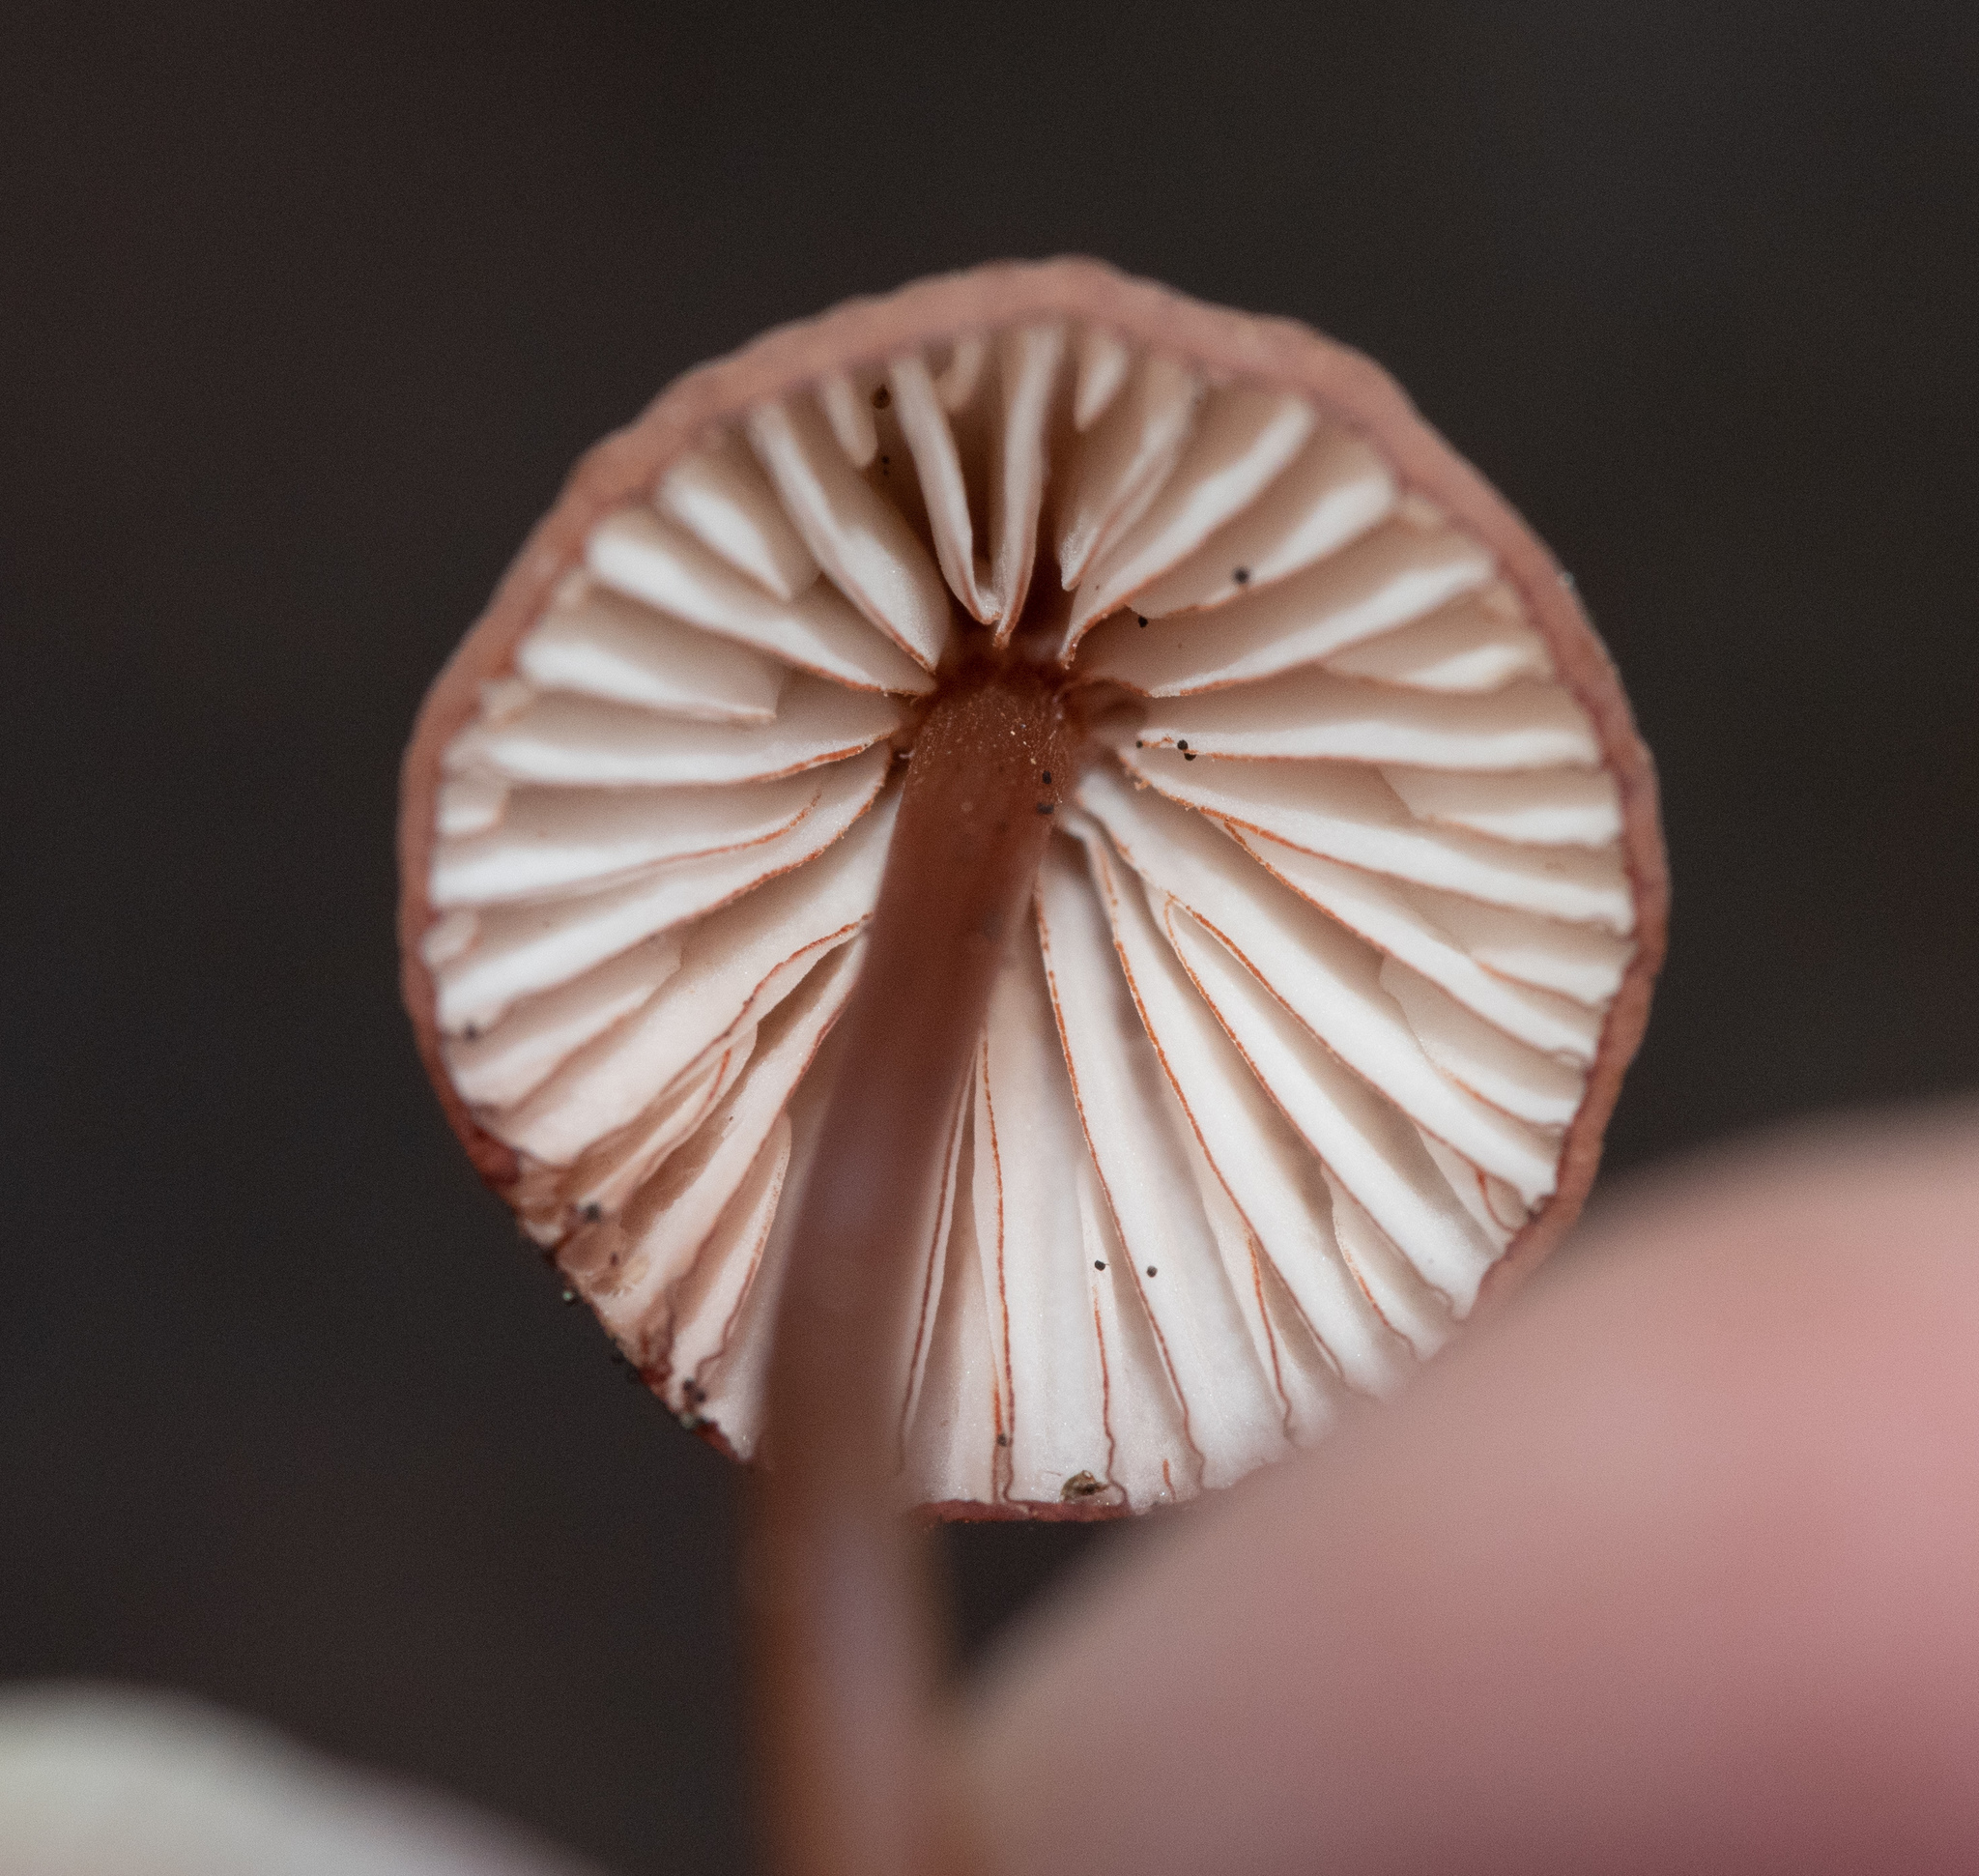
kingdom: Fungi
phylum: Basidiomycota
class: Agaricomycetes
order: Agaricales
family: Mycenaceae
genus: Mycena
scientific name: Mycena
